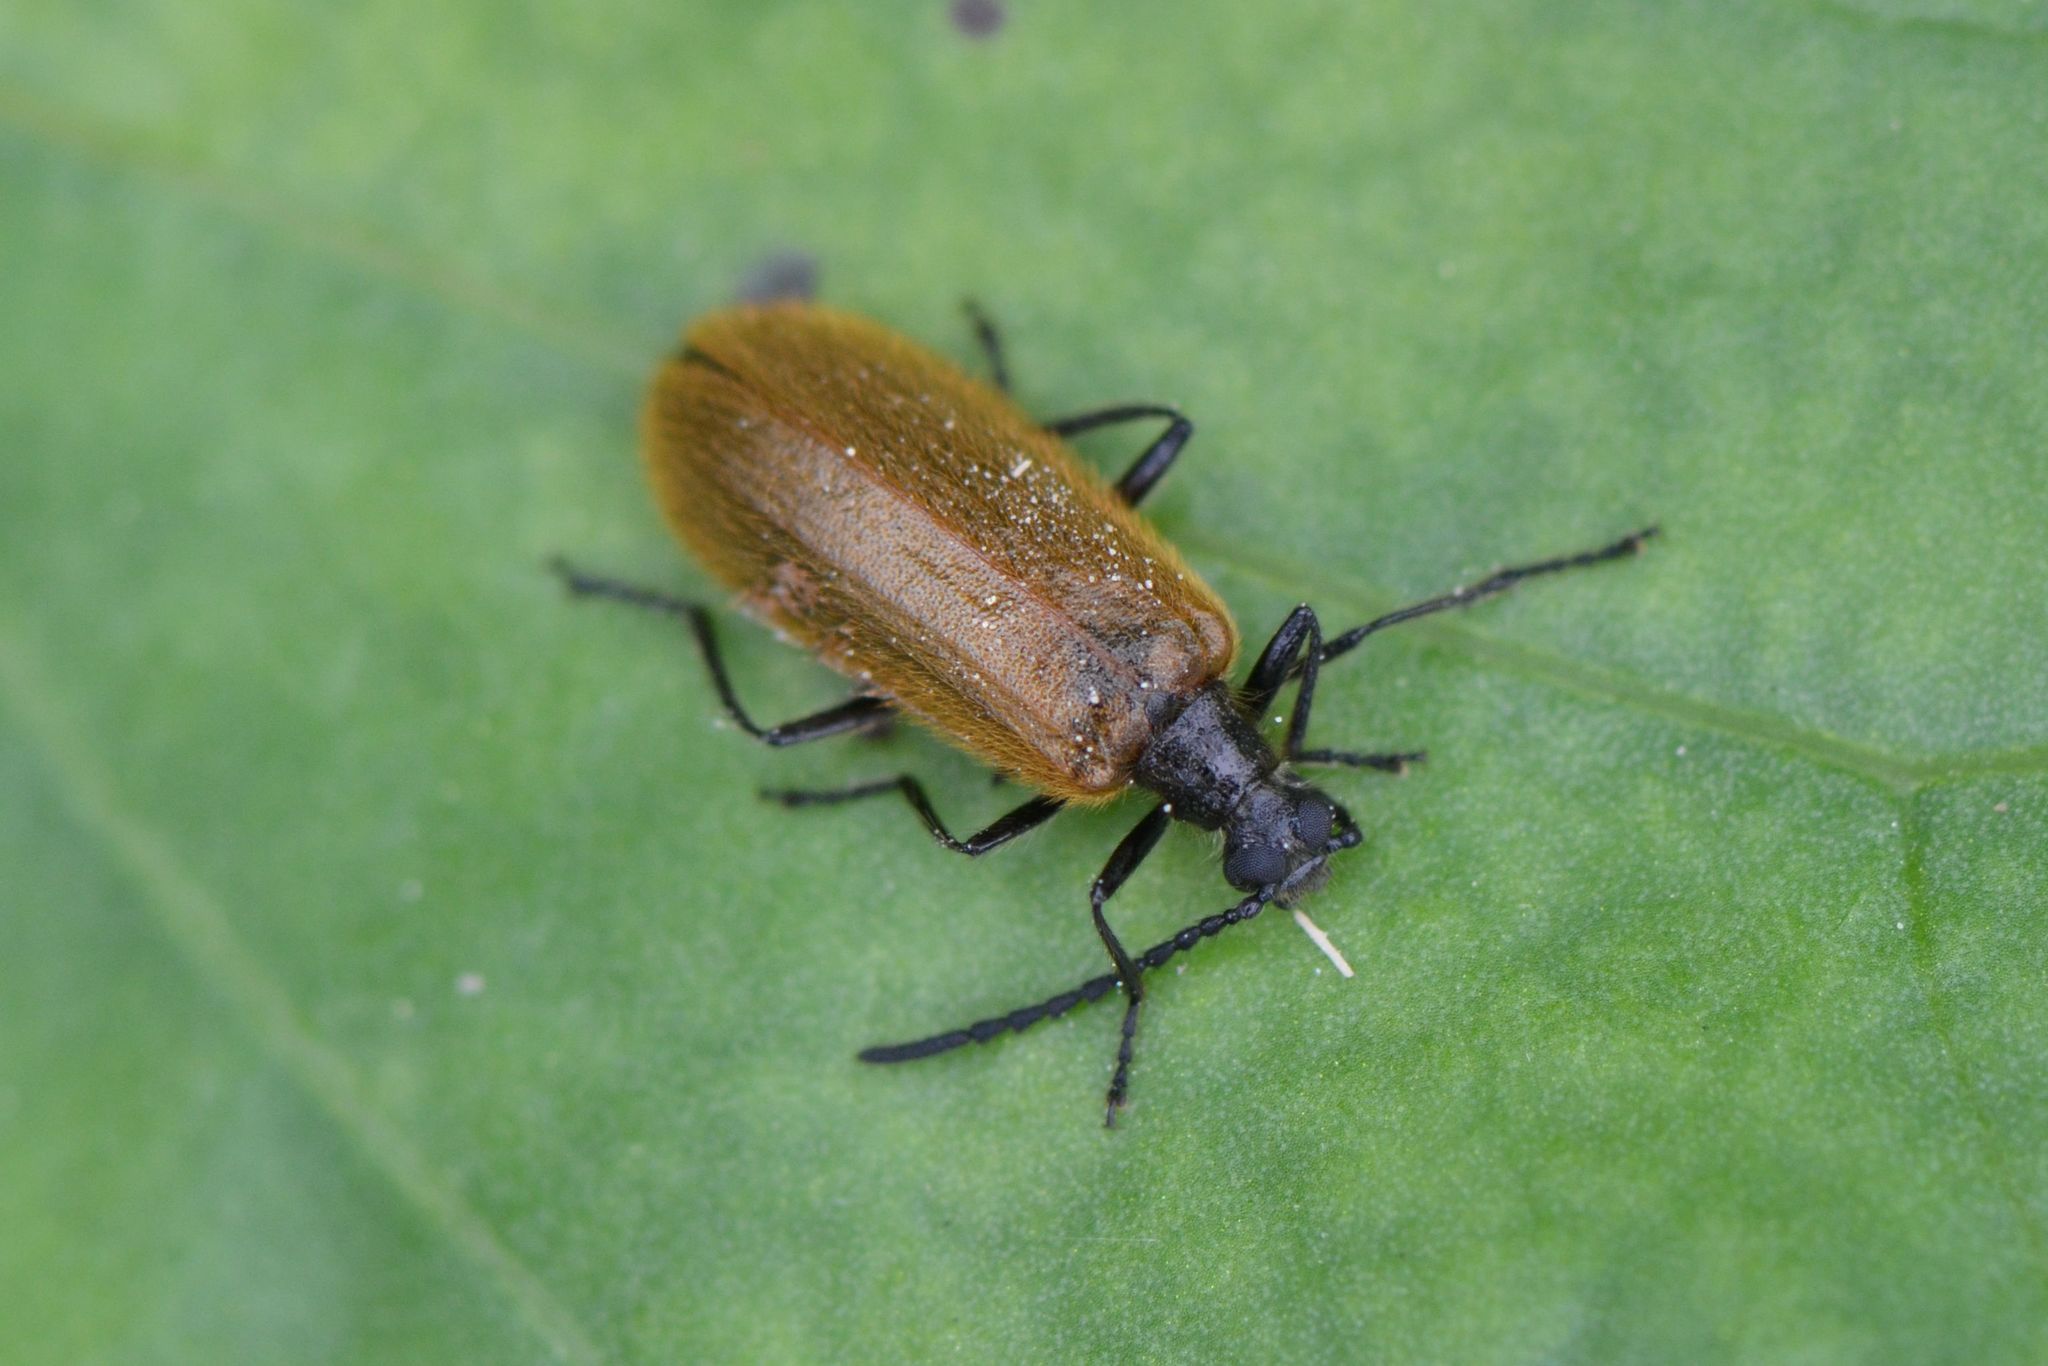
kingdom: Animalia
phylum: Arthropoda
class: Insecta
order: Coleoptera
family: Tenebrionidae
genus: Lagria
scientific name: Lagria atripes
